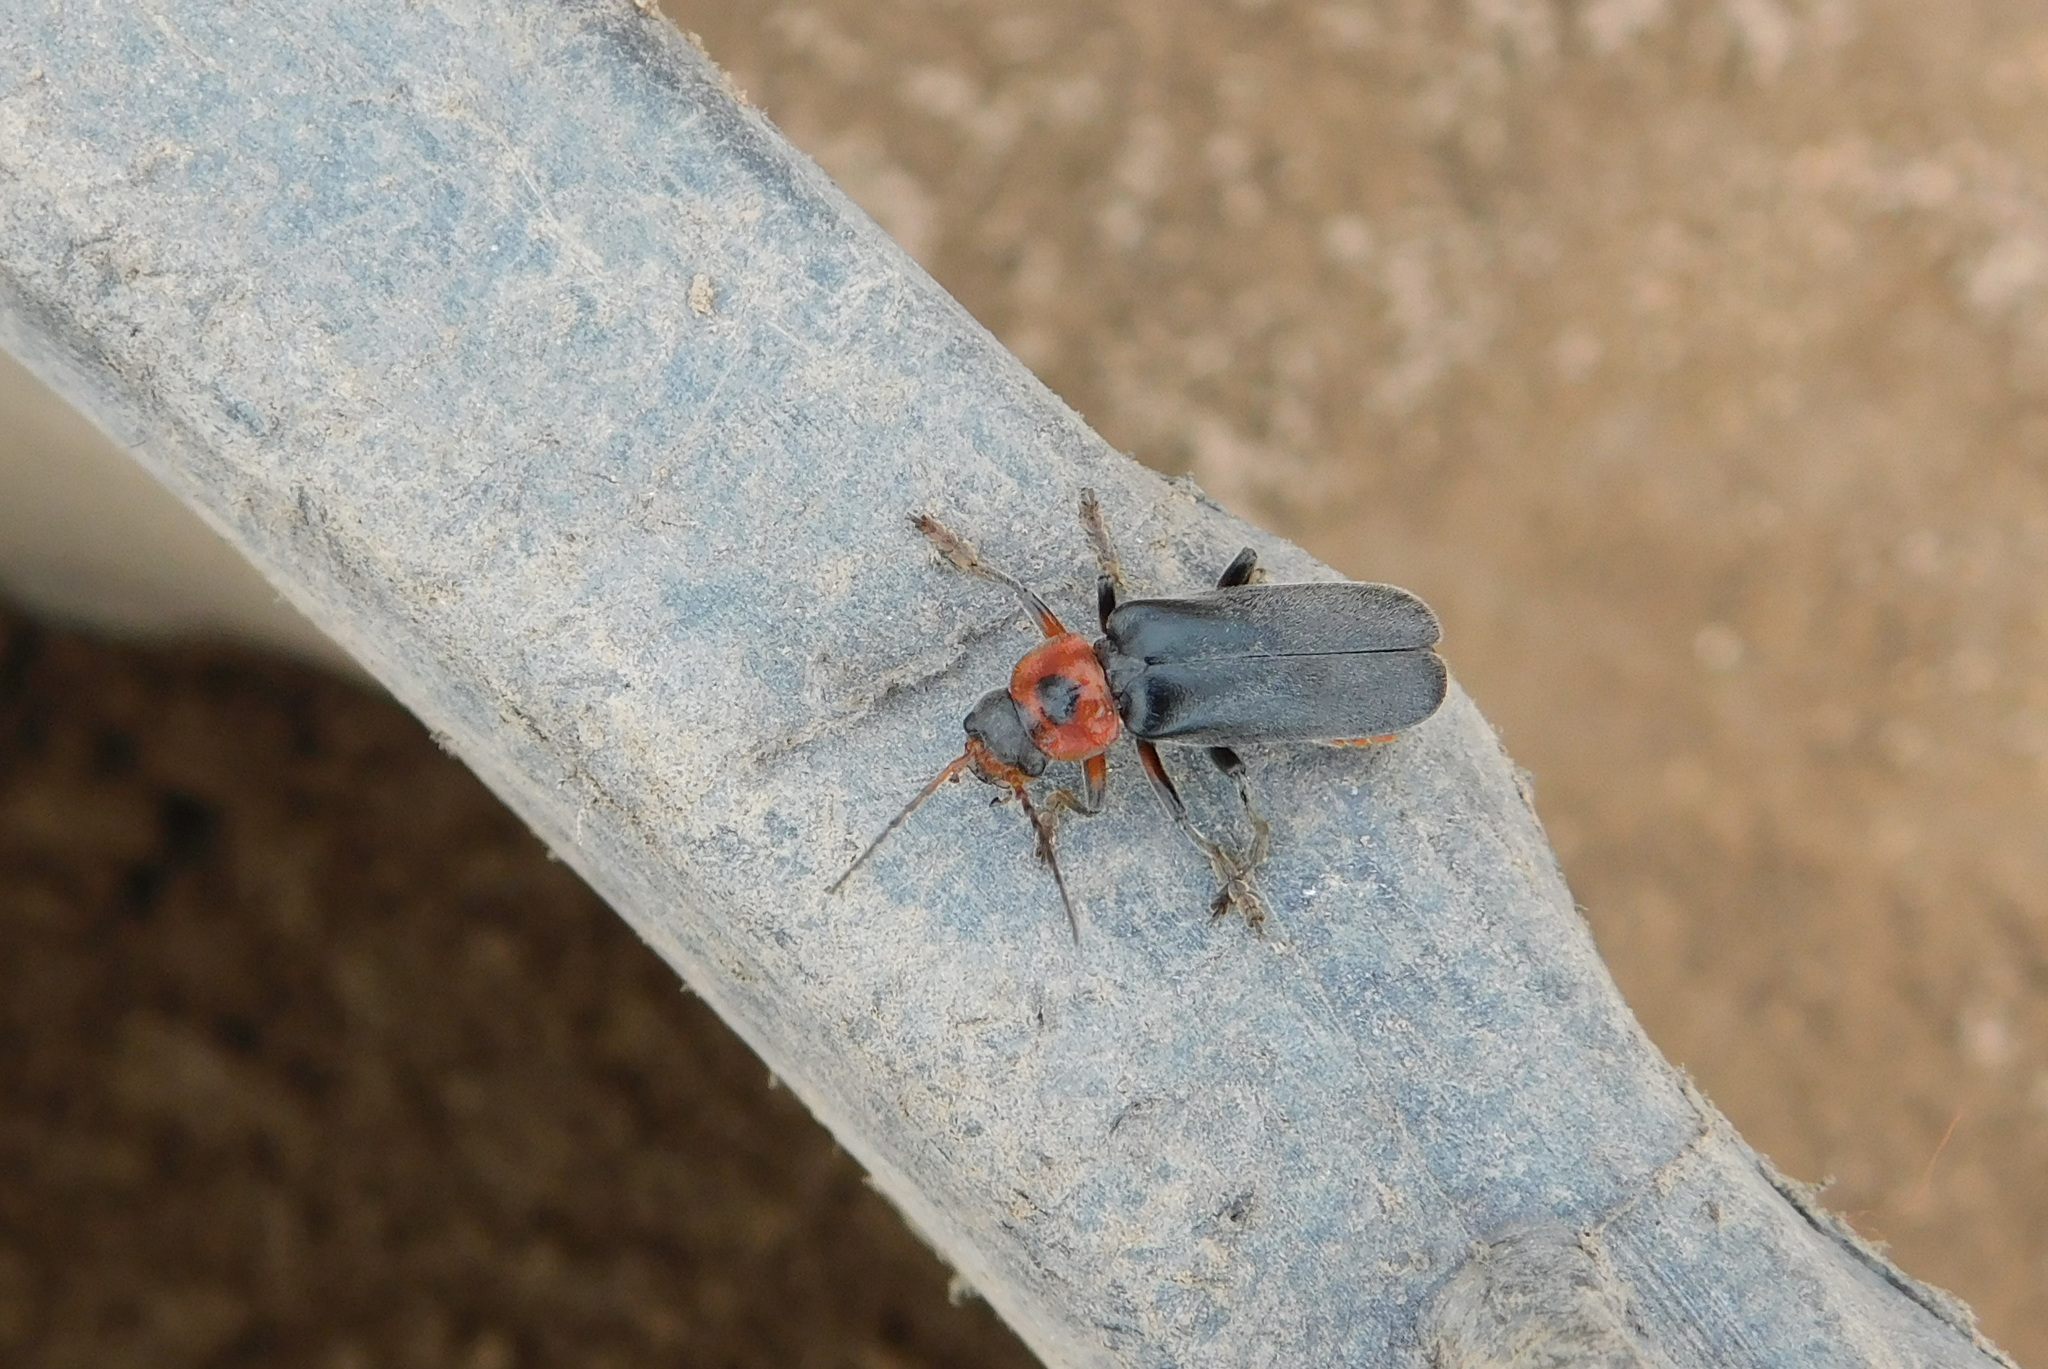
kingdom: Animalia
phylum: Arthropoda
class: Insecta
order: Coleoptera
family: Cantharidae
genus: Cantharis
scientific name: Cantharis rustica
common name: Soldier beetle
